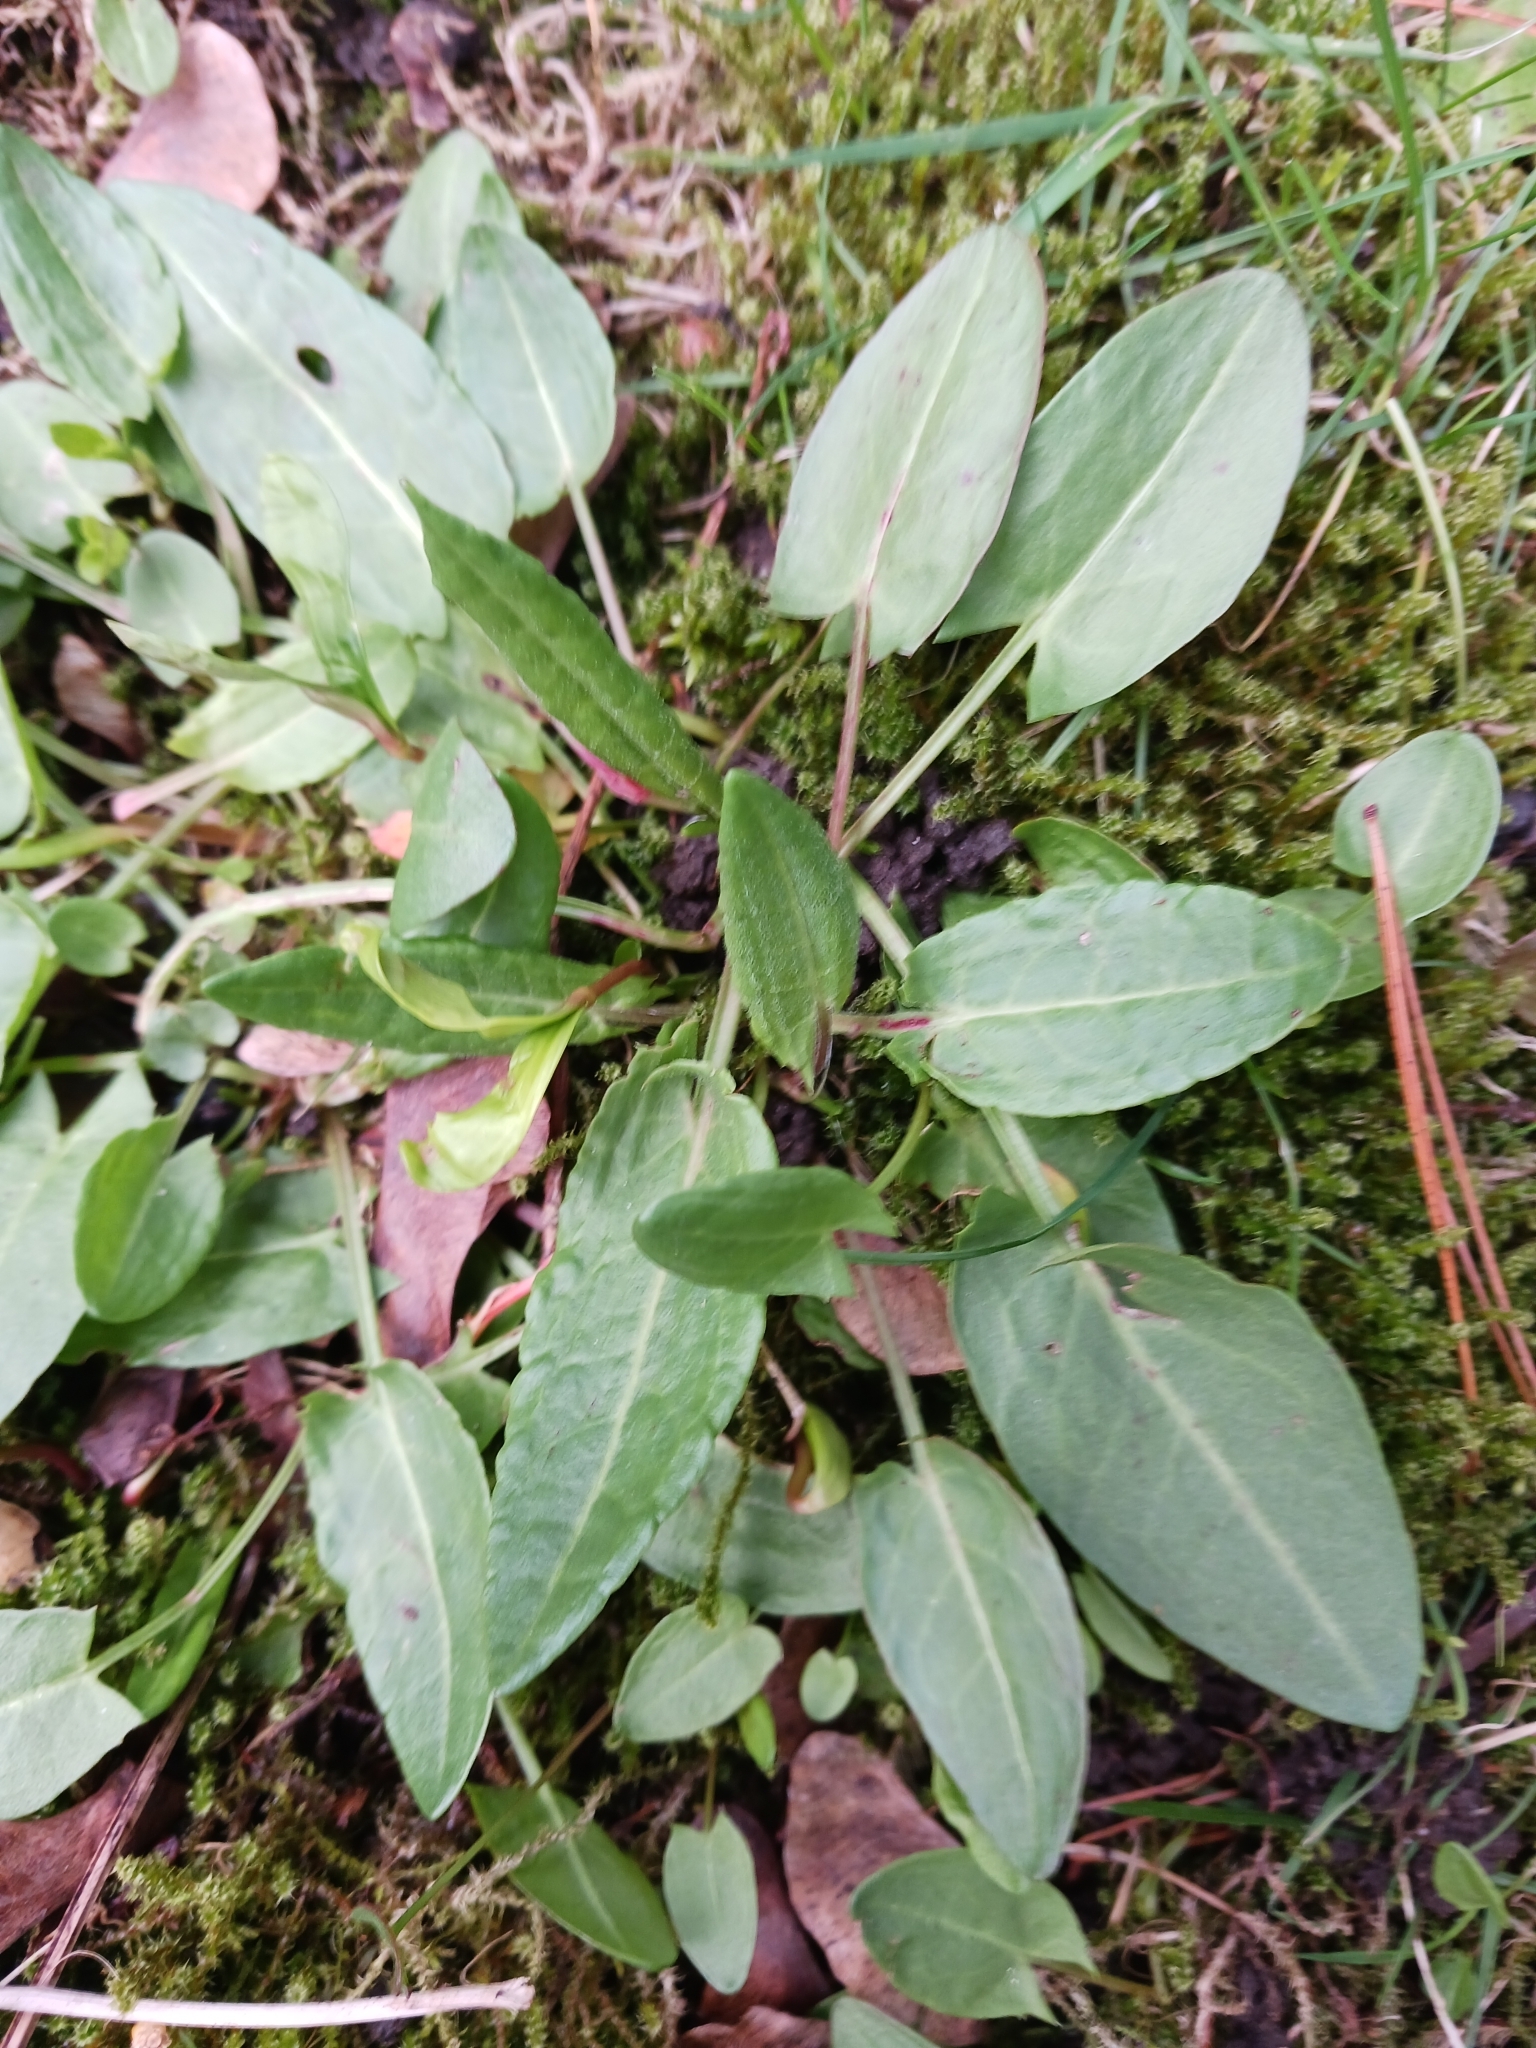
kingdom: Plantae
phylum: Tracheophyta
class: Magnoliopsida
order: Caryophyllales
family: Polygonaceae
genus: Rumex
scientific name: Rumex acetosa
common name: Garden sorrel
